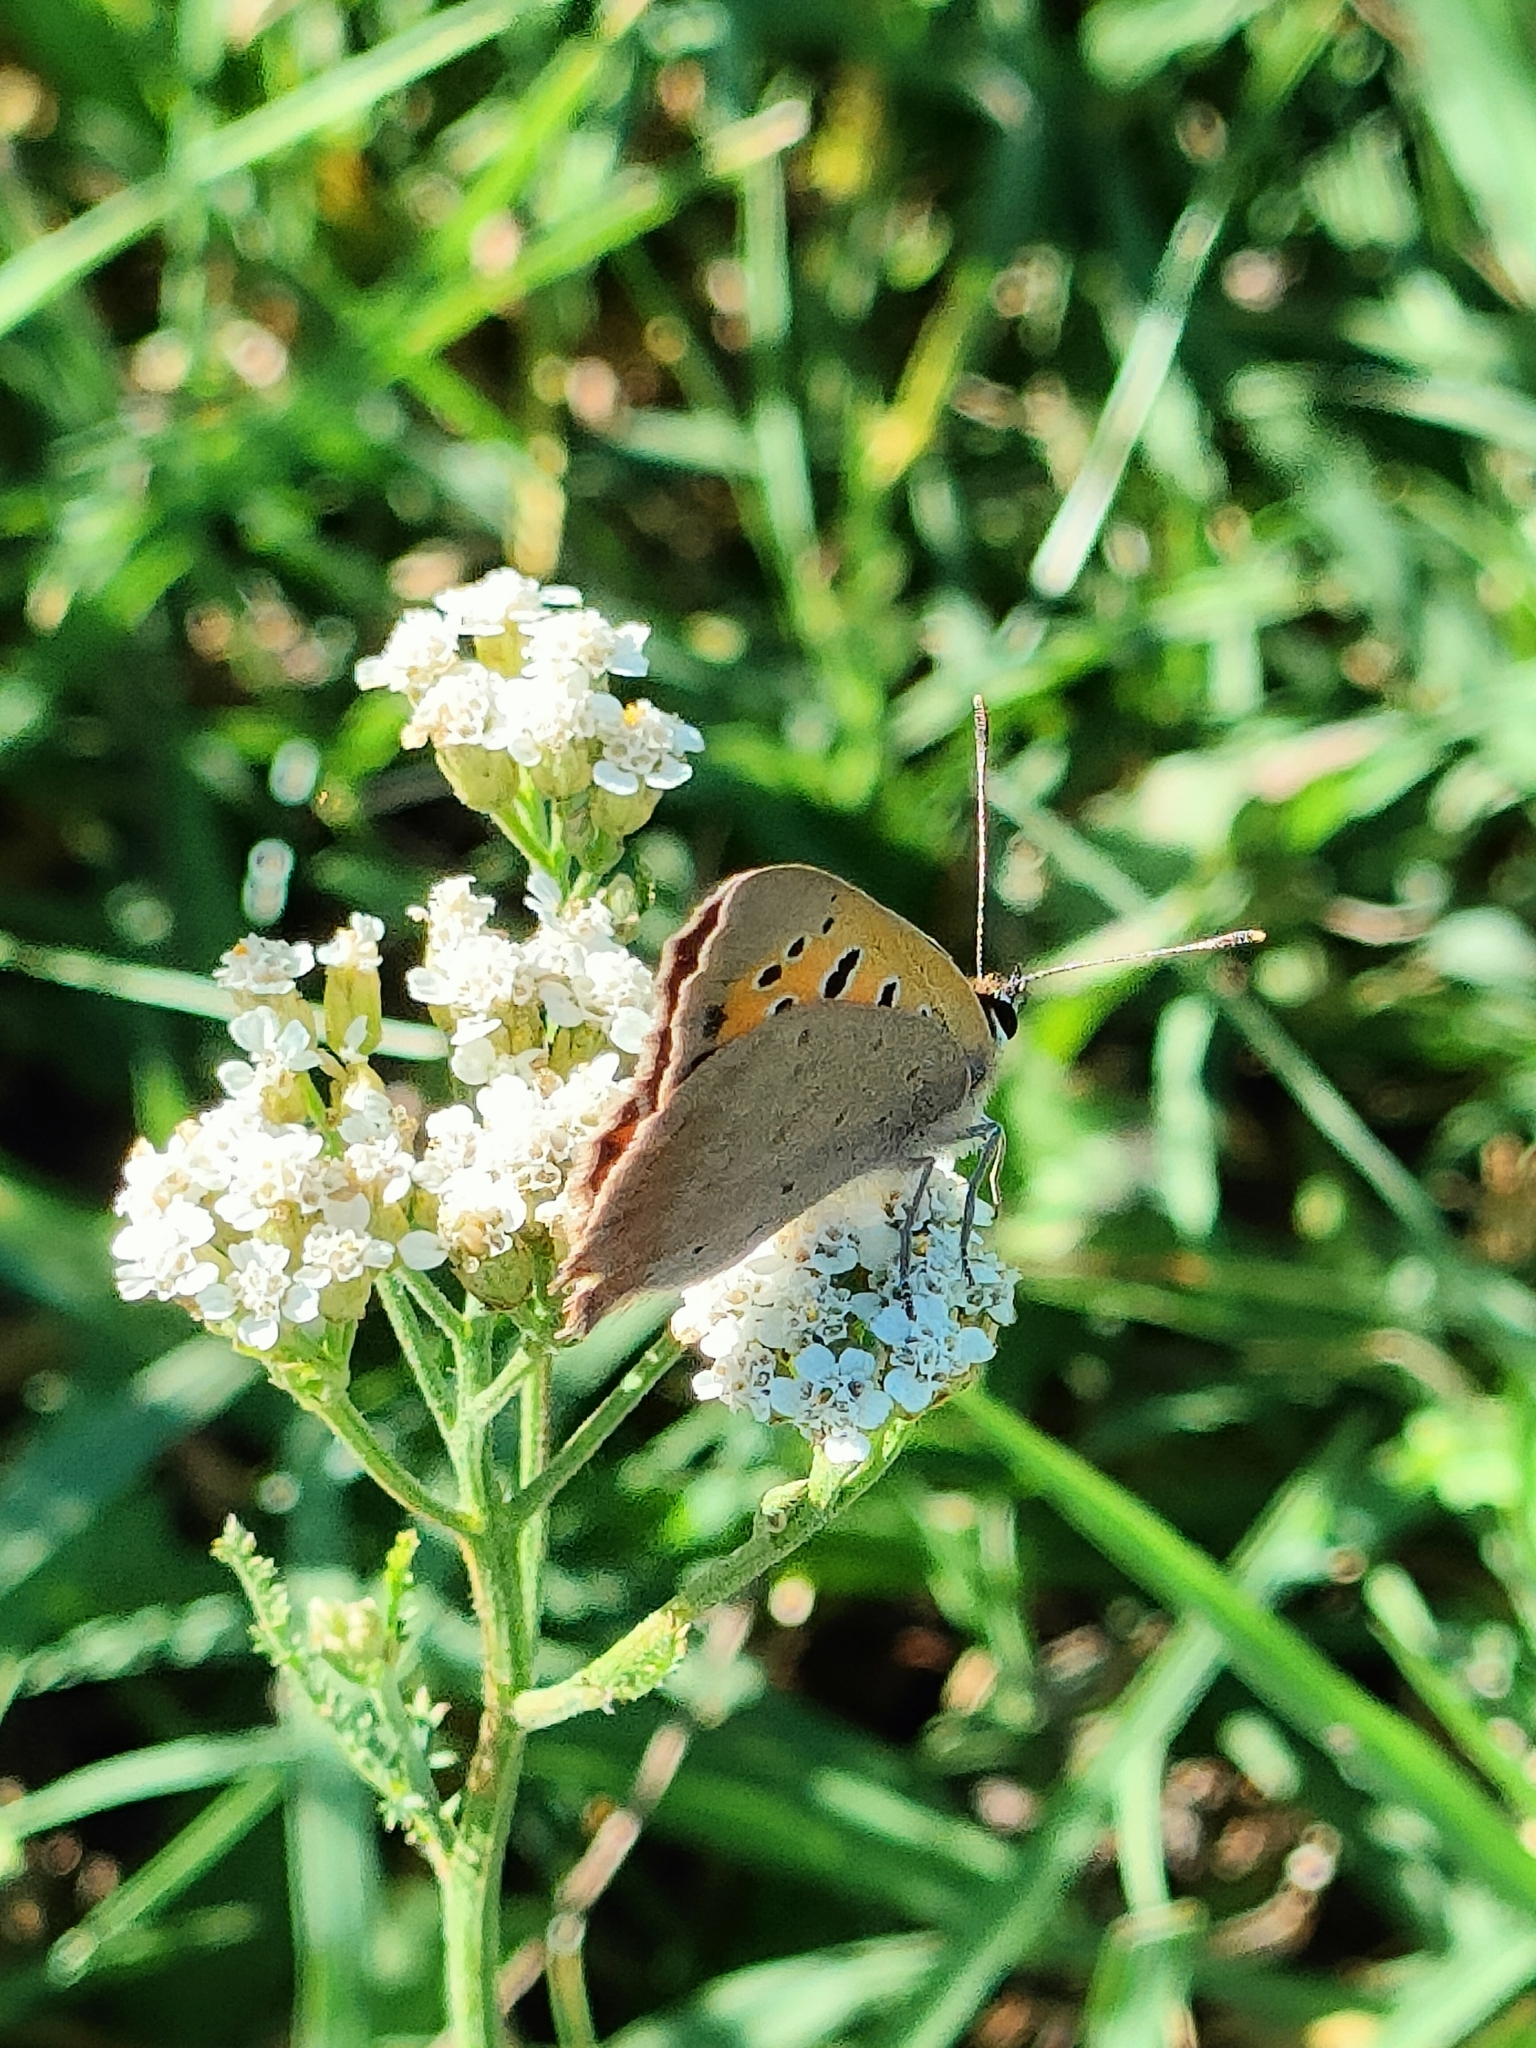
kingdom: Animalia
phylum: Arthropoda
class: Insecta
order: Lepidoptera
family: Lycaenidae
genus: Lycaena
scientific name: Lycaena phlaeas
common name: Small copper
